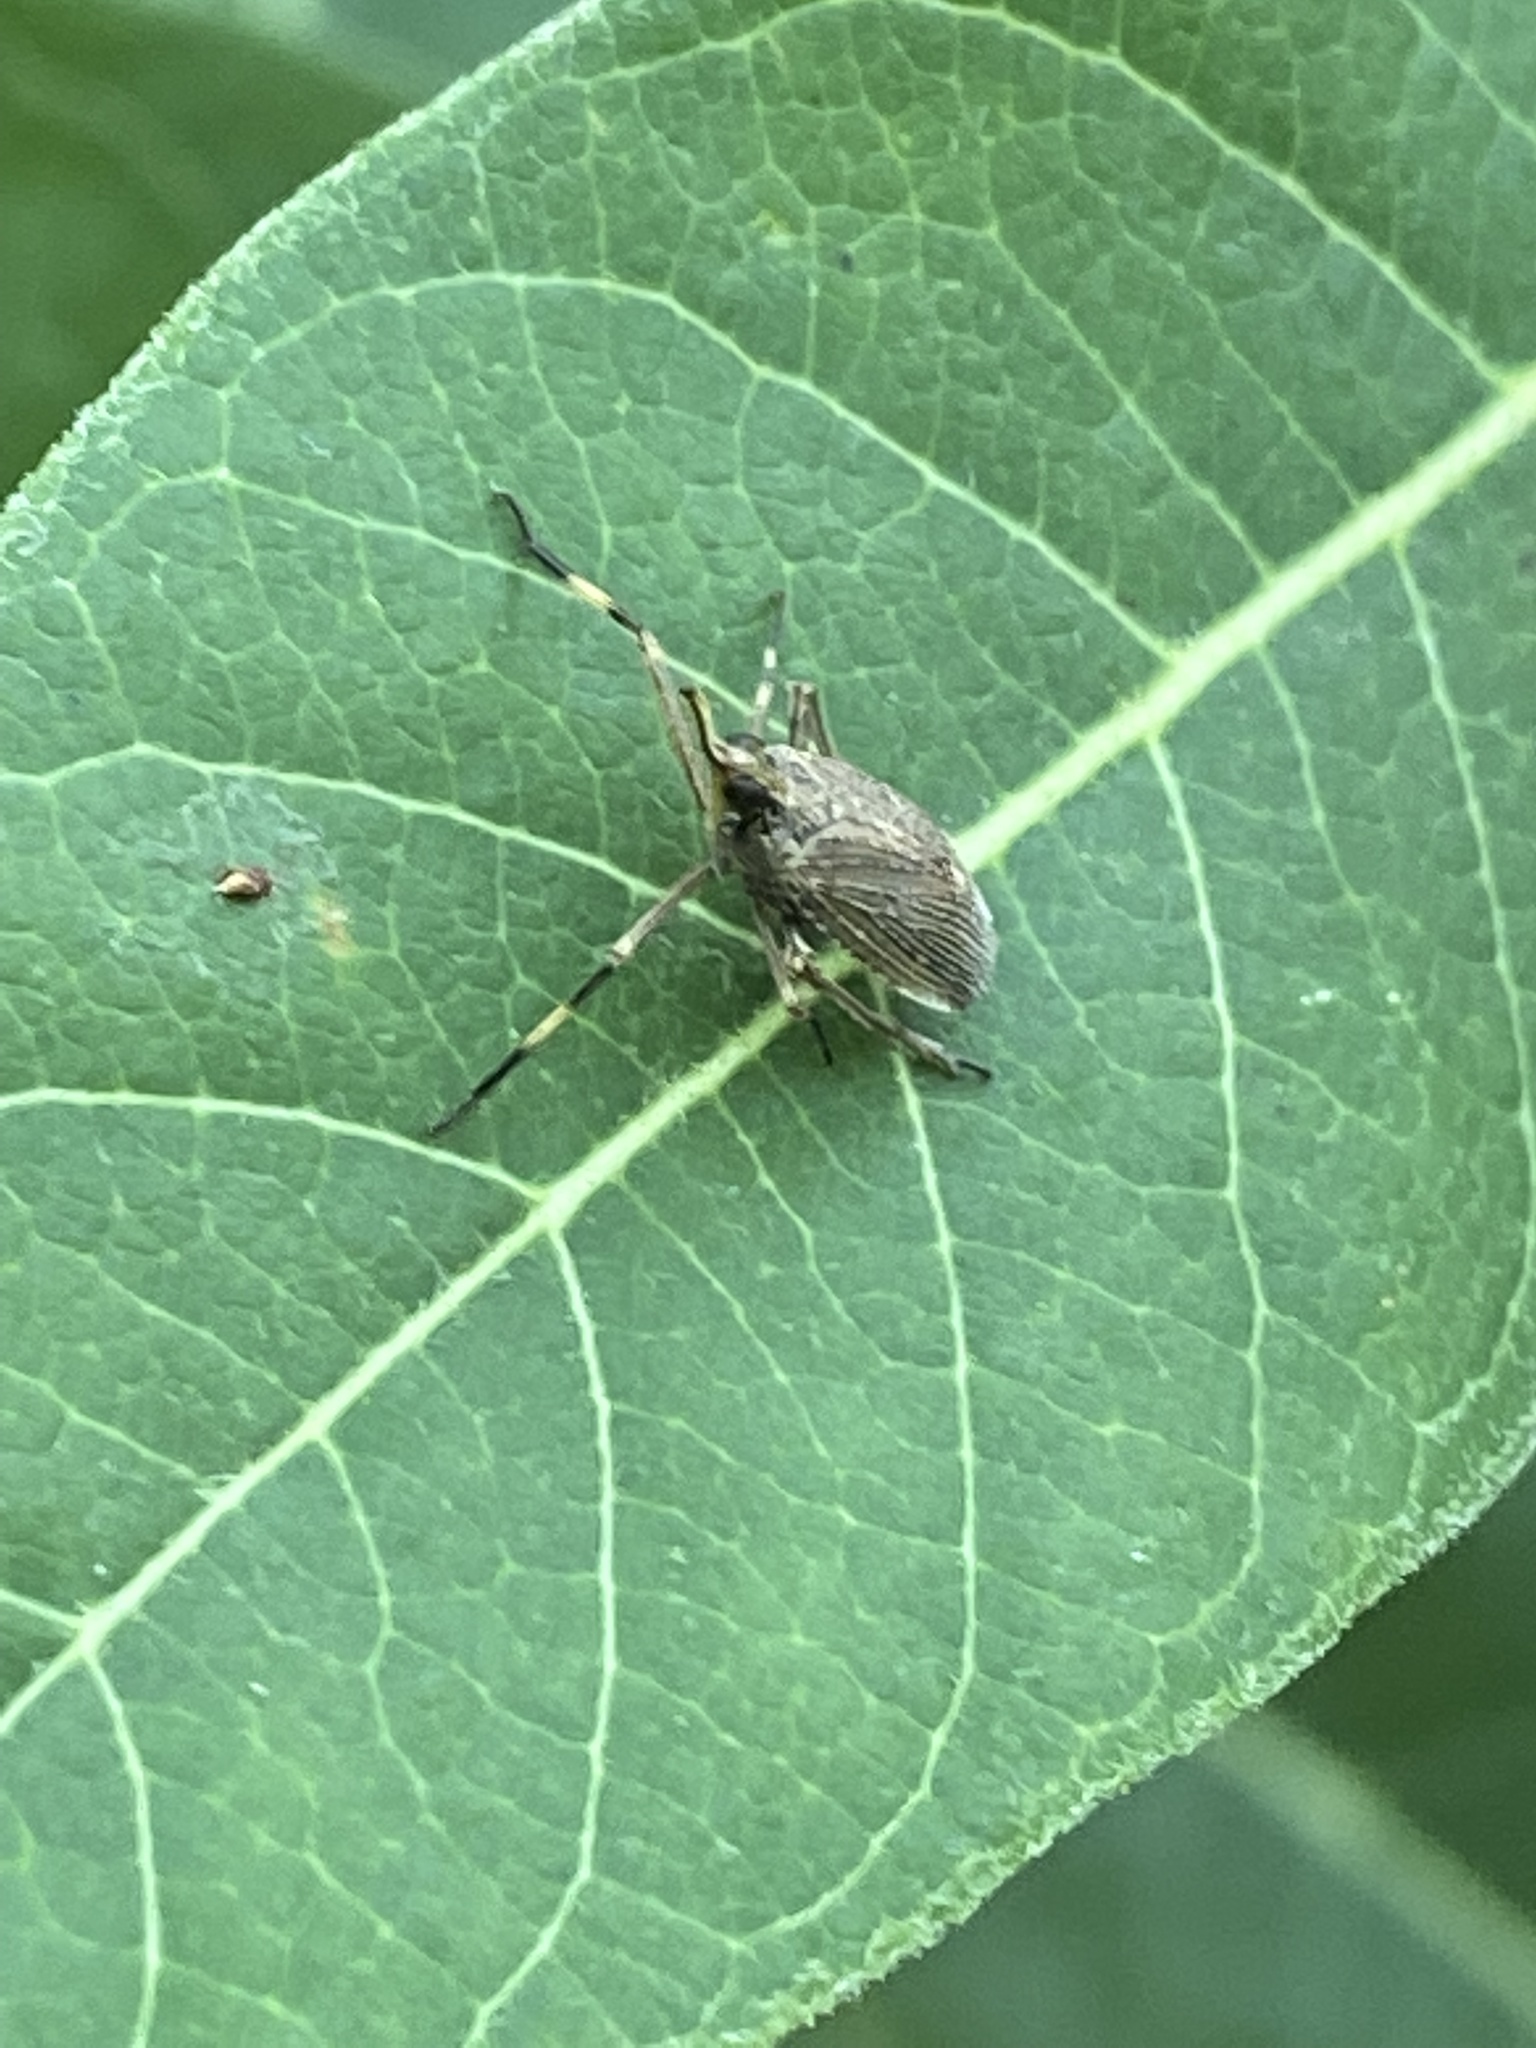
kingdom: Animalia
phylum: Arthropoda
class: Insecta
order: Hemiptera
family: Dictyopharidae
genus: Scolops
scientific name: Scolops sulcipes
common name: Partridge planthopper
